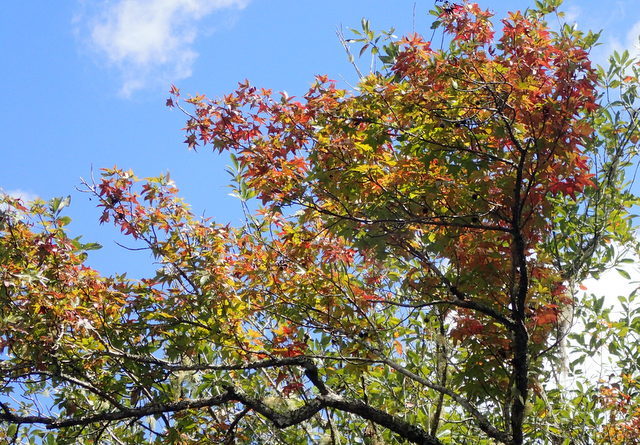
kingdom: Plantae
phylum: Tracheophyta
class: Magnoliopsida
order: Saxifragales
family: Altingiaceae
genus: Liquidambar
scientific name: Liquidambar styraciflua
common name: Sweet gum
